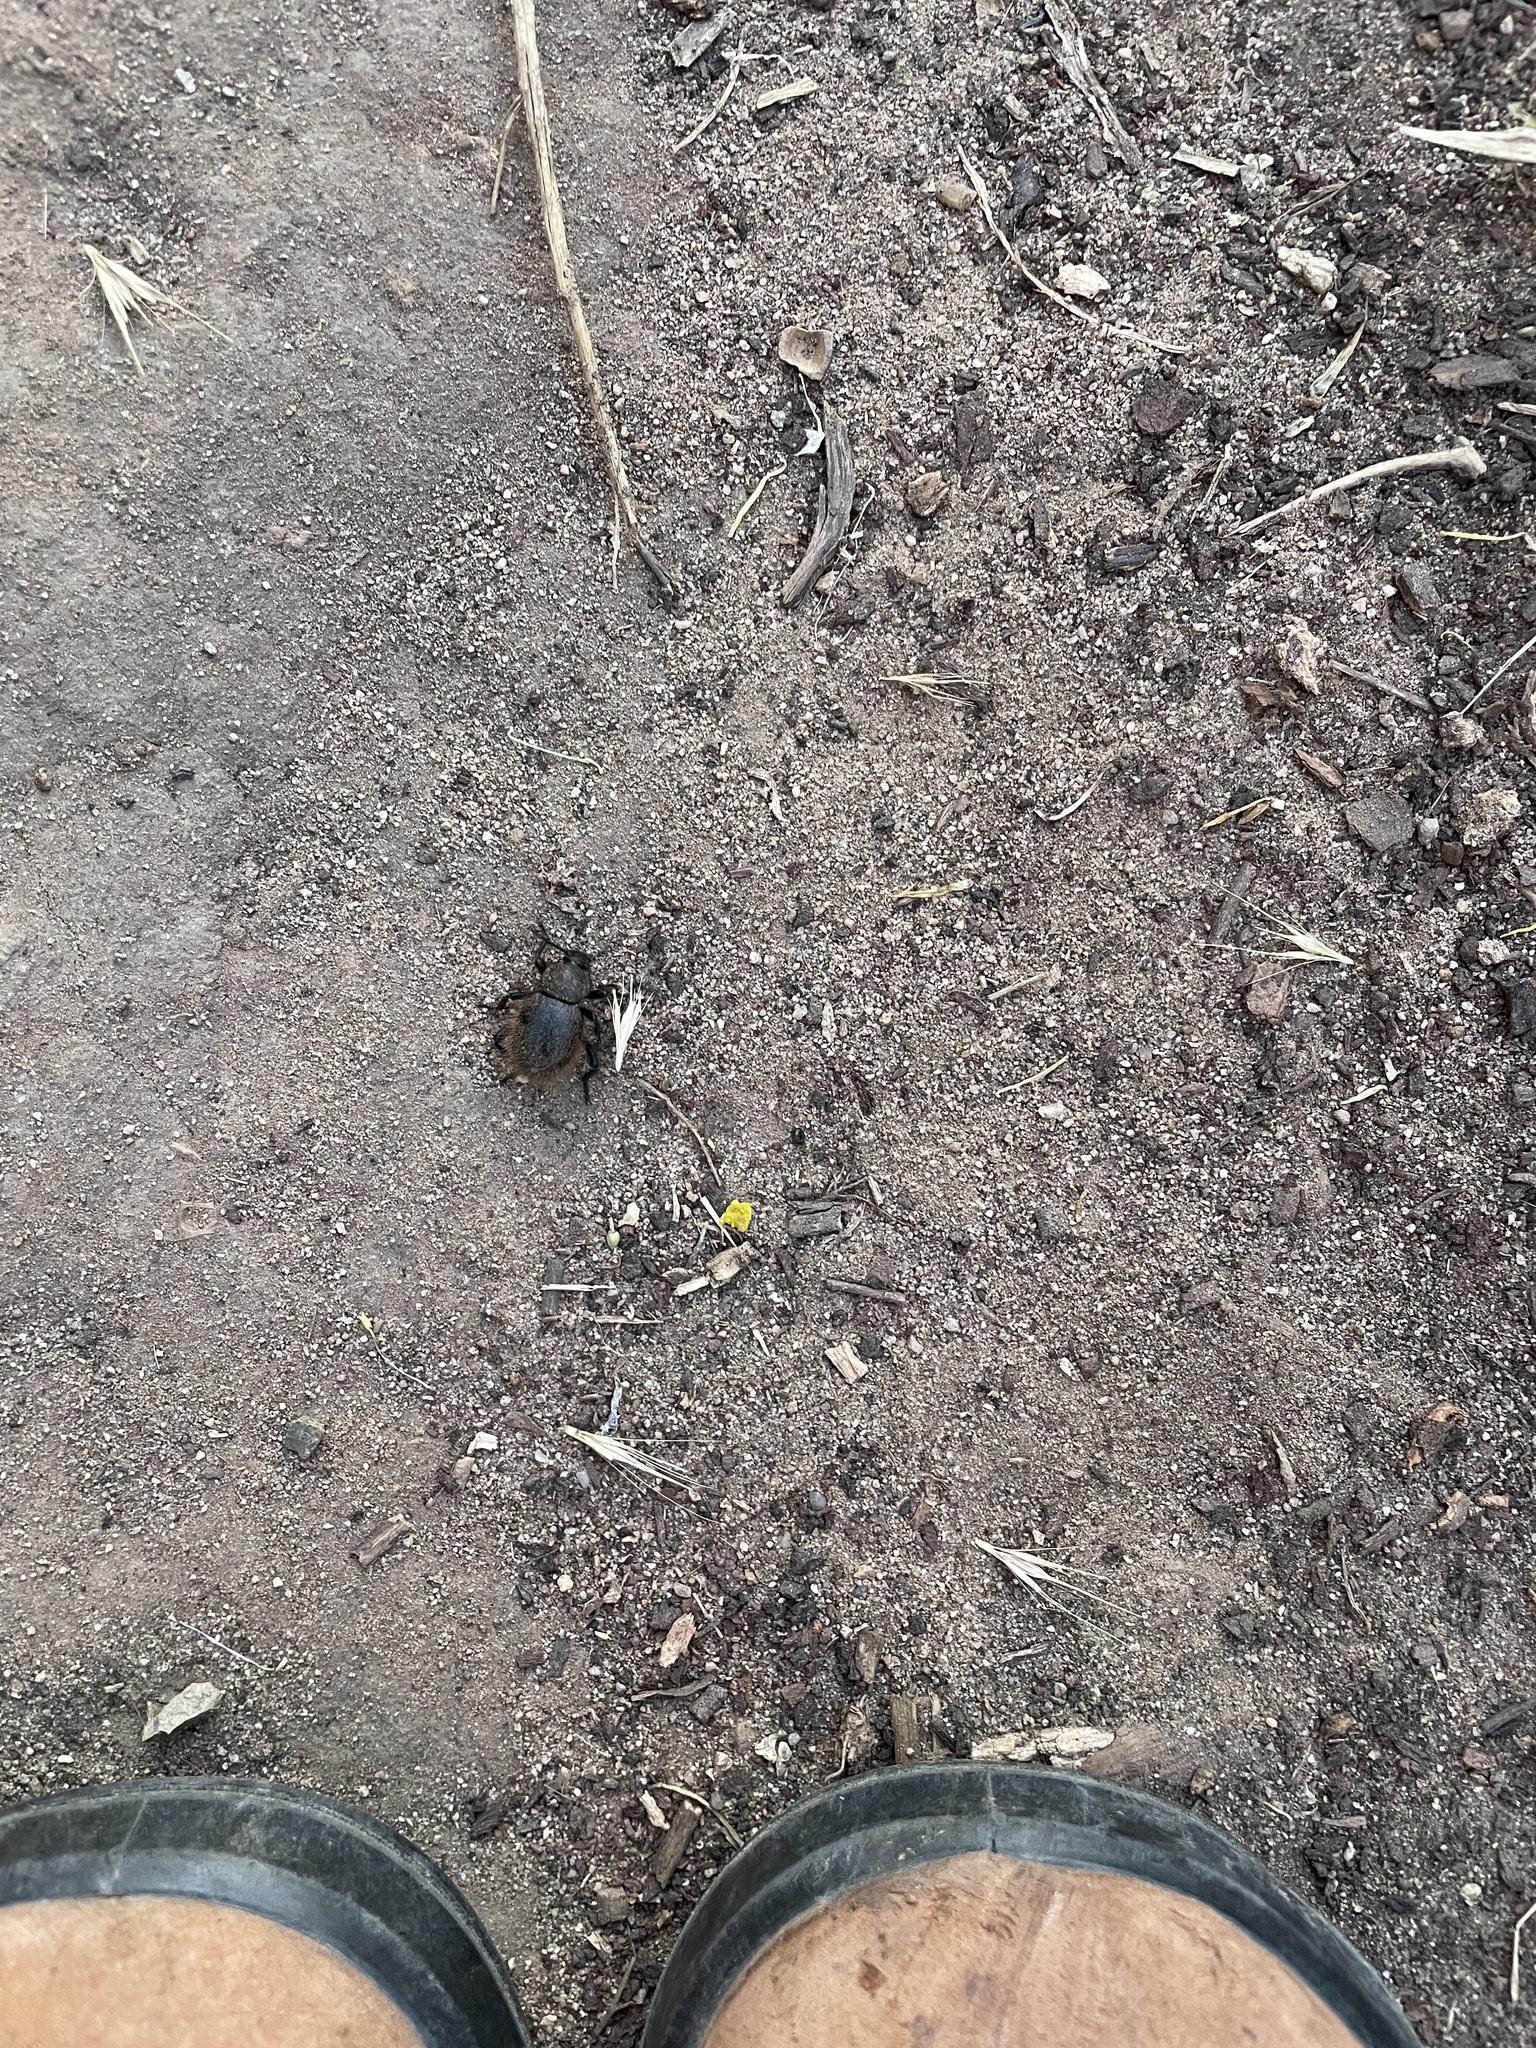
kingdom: Animalia
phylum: Arthropoda
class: Insecta
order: Coleoptera
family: Tenebrionidae
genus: Eleodes
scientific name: Eleodes osculans
